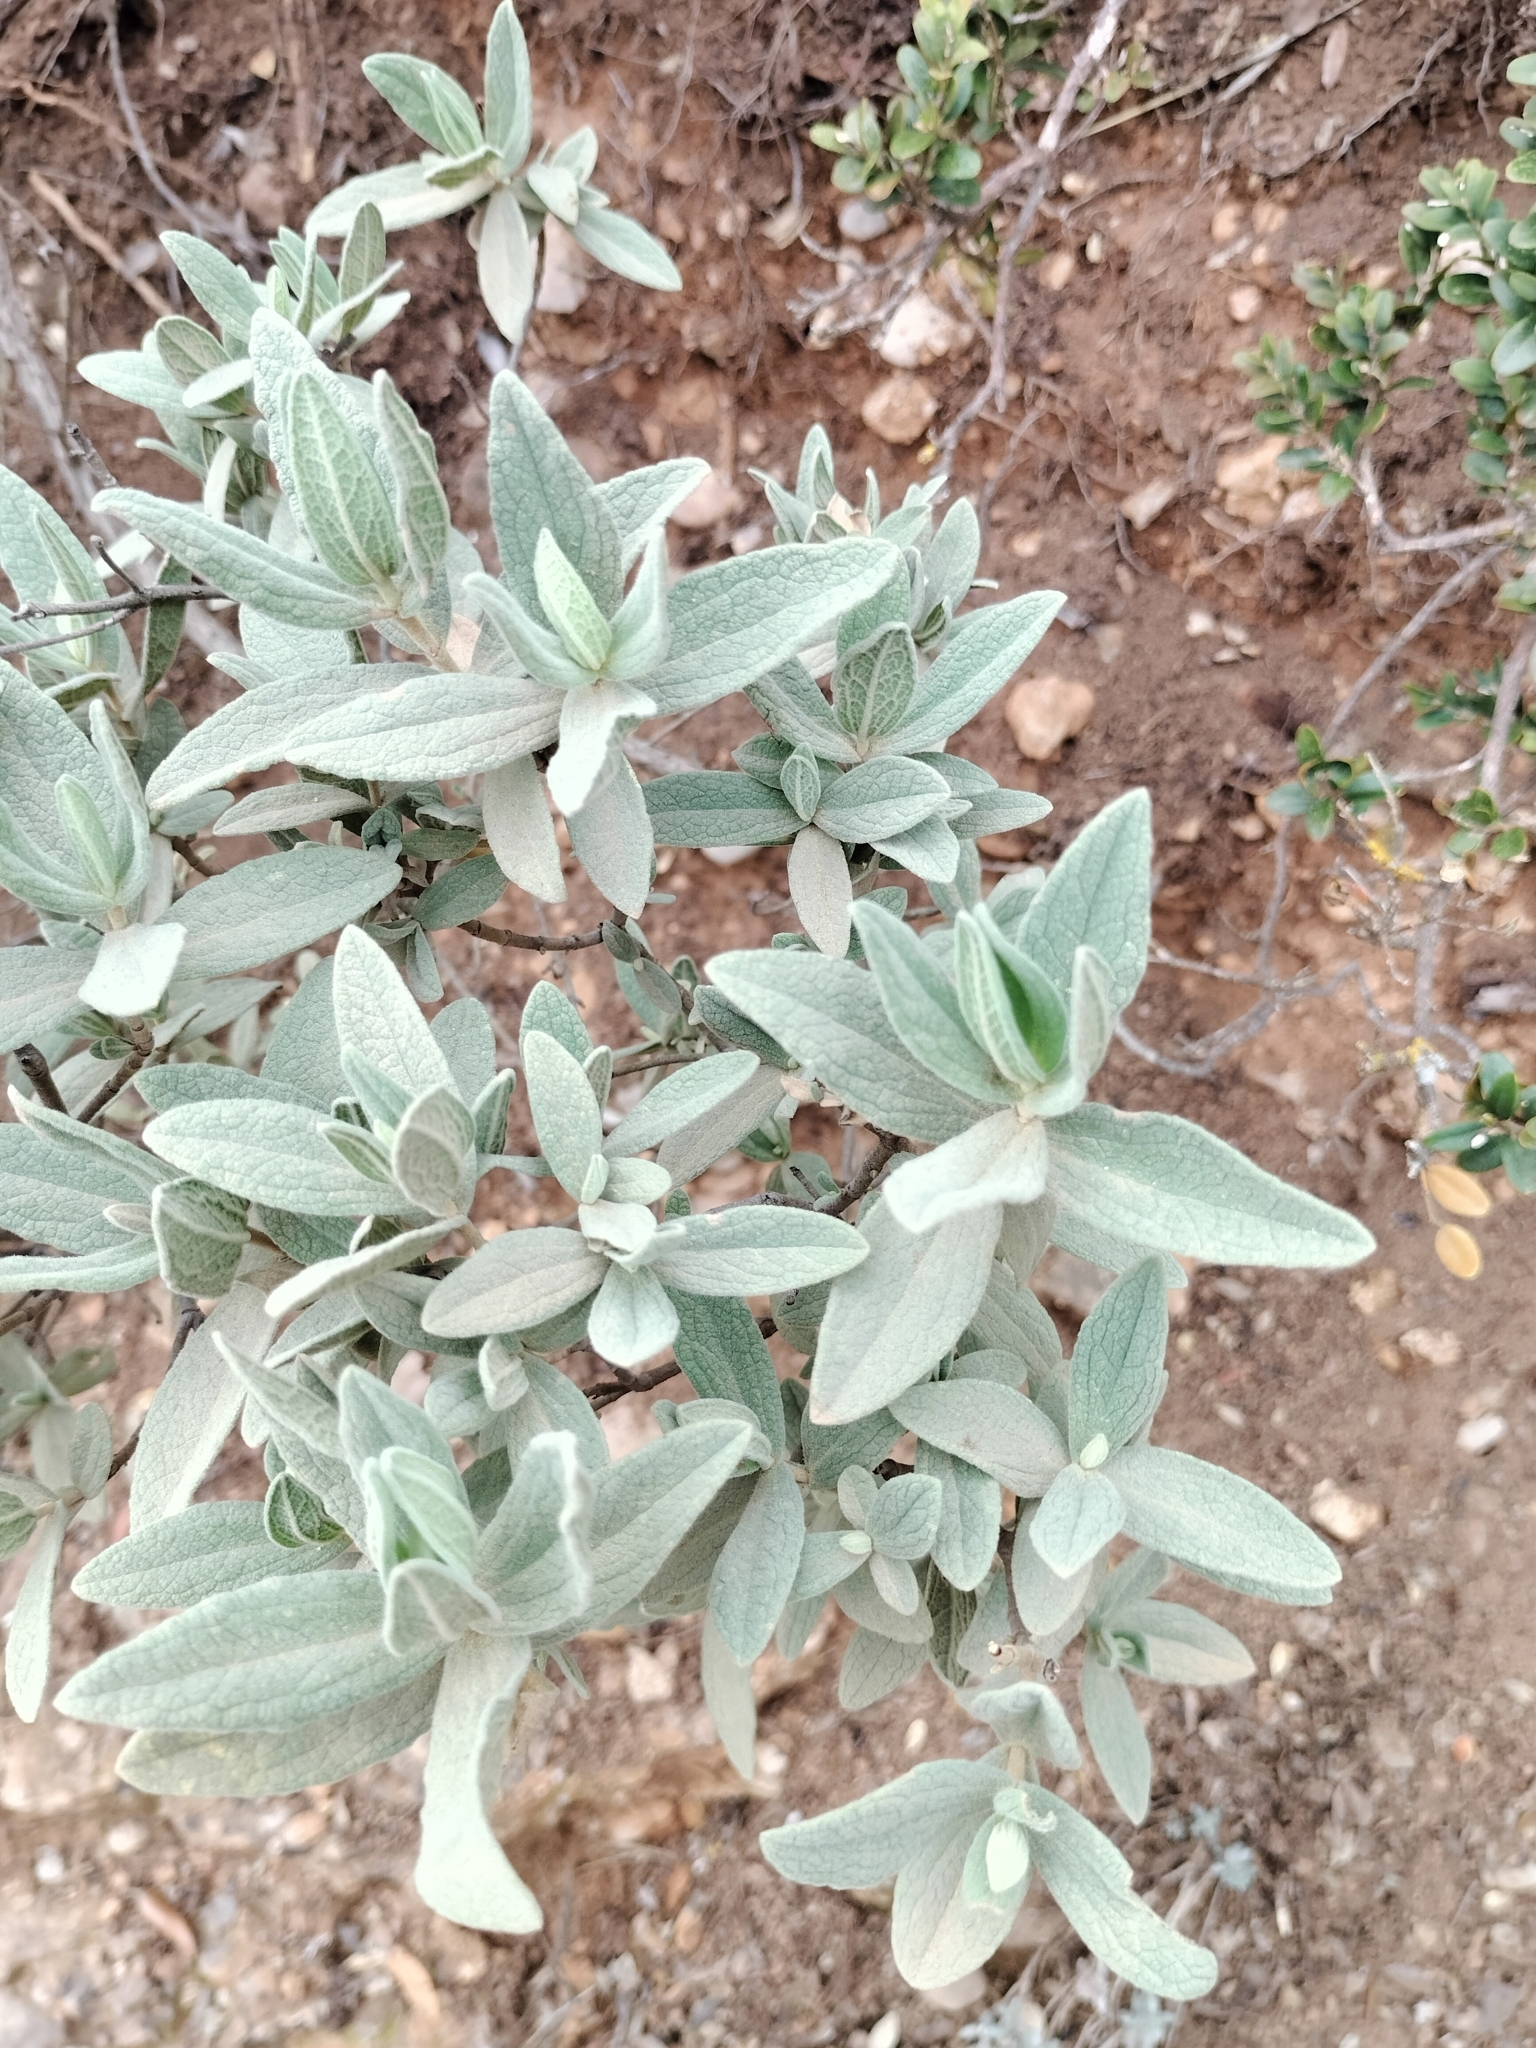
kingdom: Plantae
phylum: Tracheophyta
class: Magnoliopsida
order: Malvales
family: Cistaceae
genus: Cistus
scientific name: Cistus albidus
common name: White-leaf rock-rose
